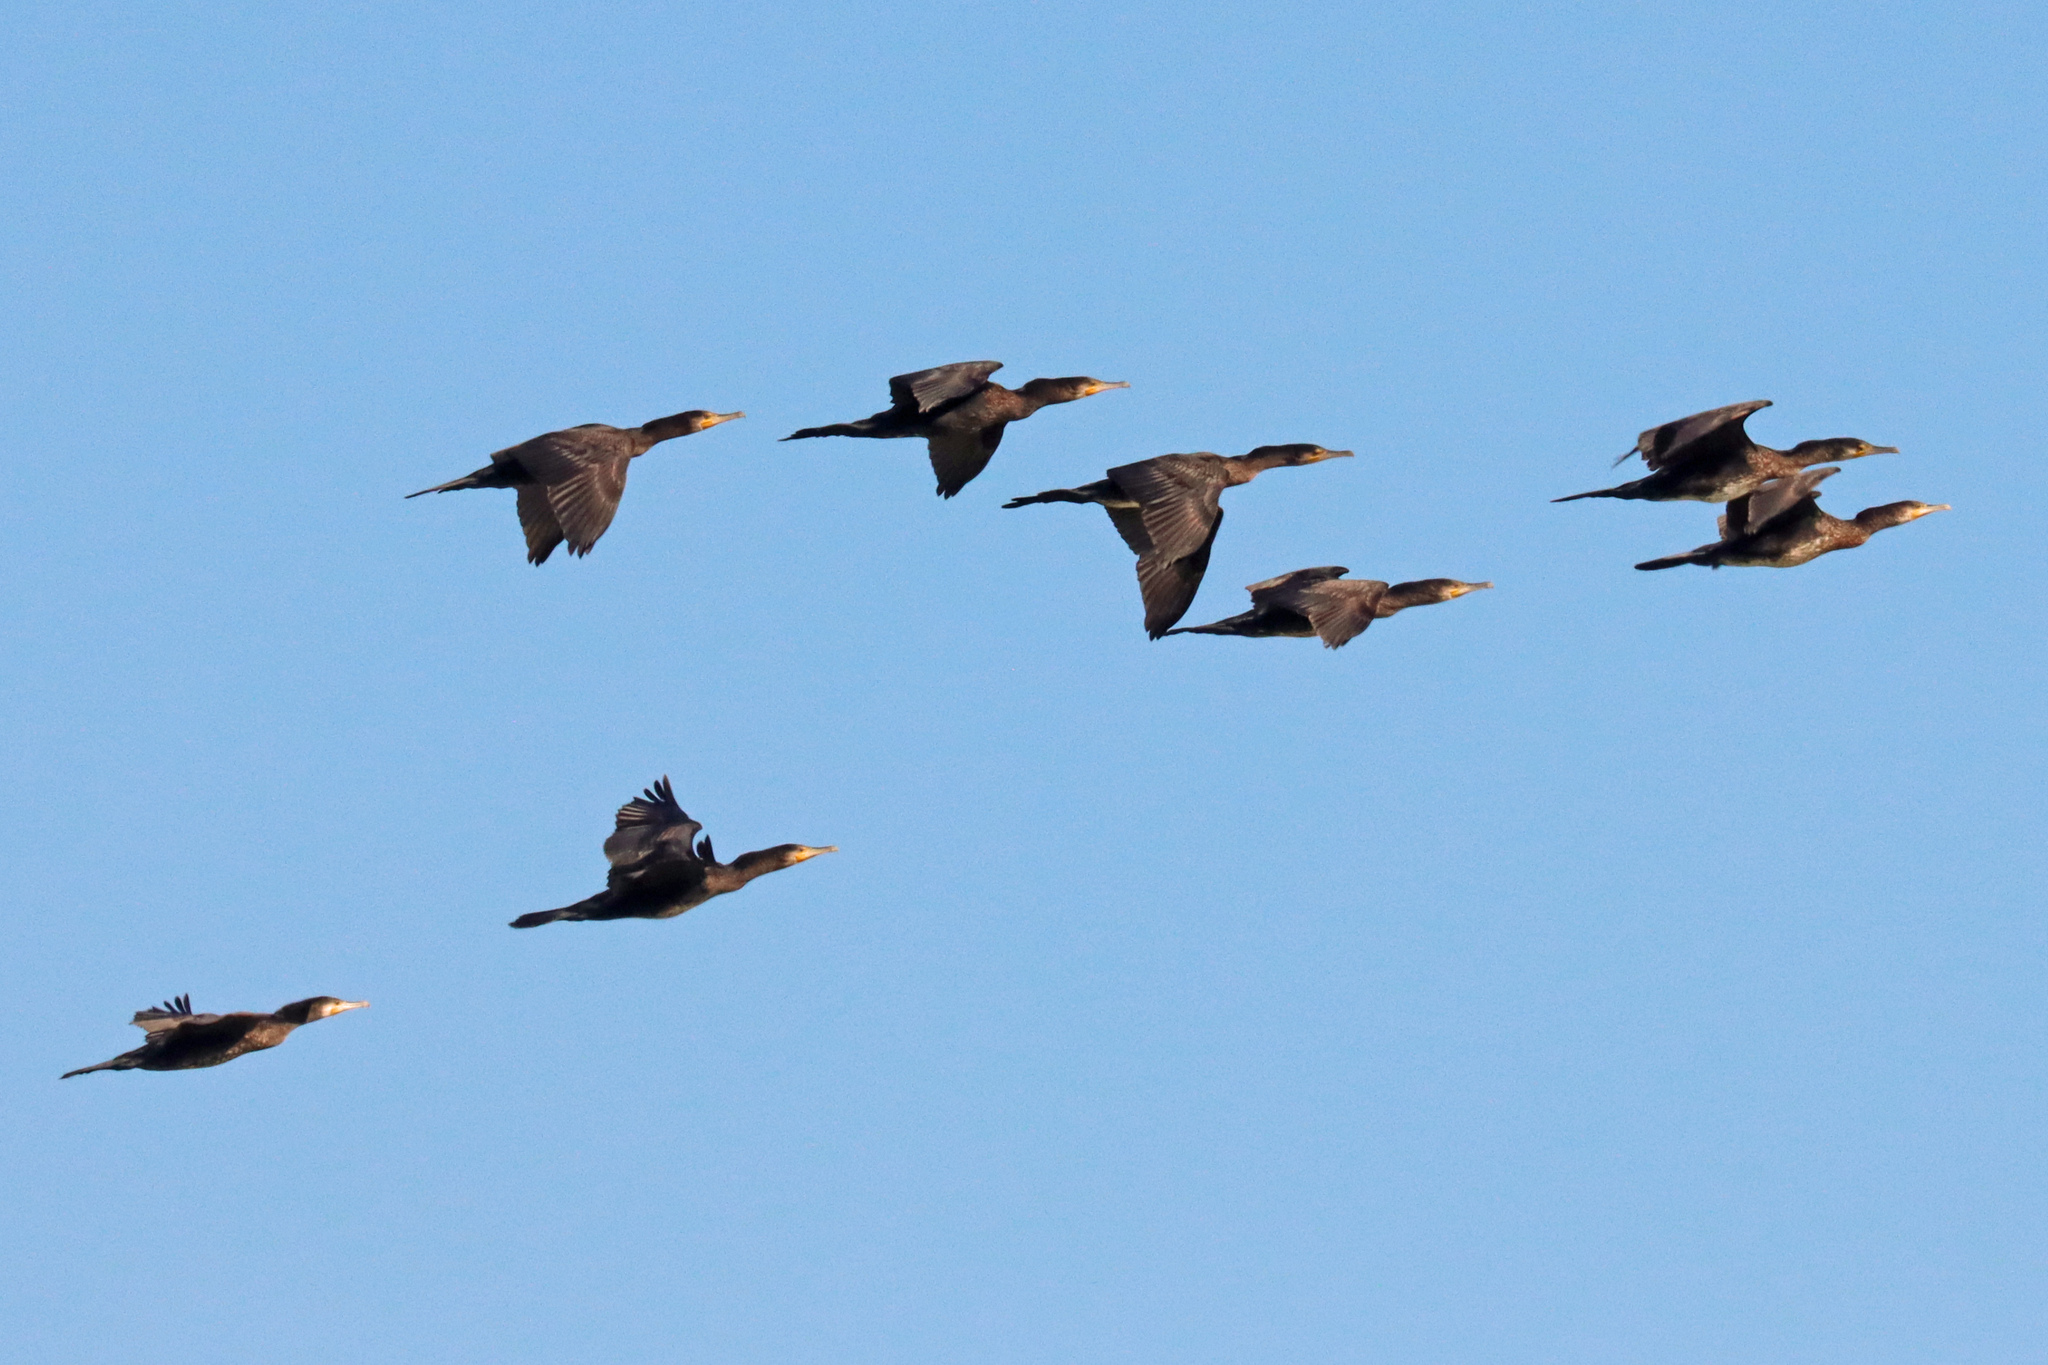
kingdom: Animalia
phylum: Chordata
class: Aves
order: Suliformes
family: Phalacrocoracidae
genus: Phalacrocorax
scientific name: Phalacrocorax carbo
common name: Great cormorant
